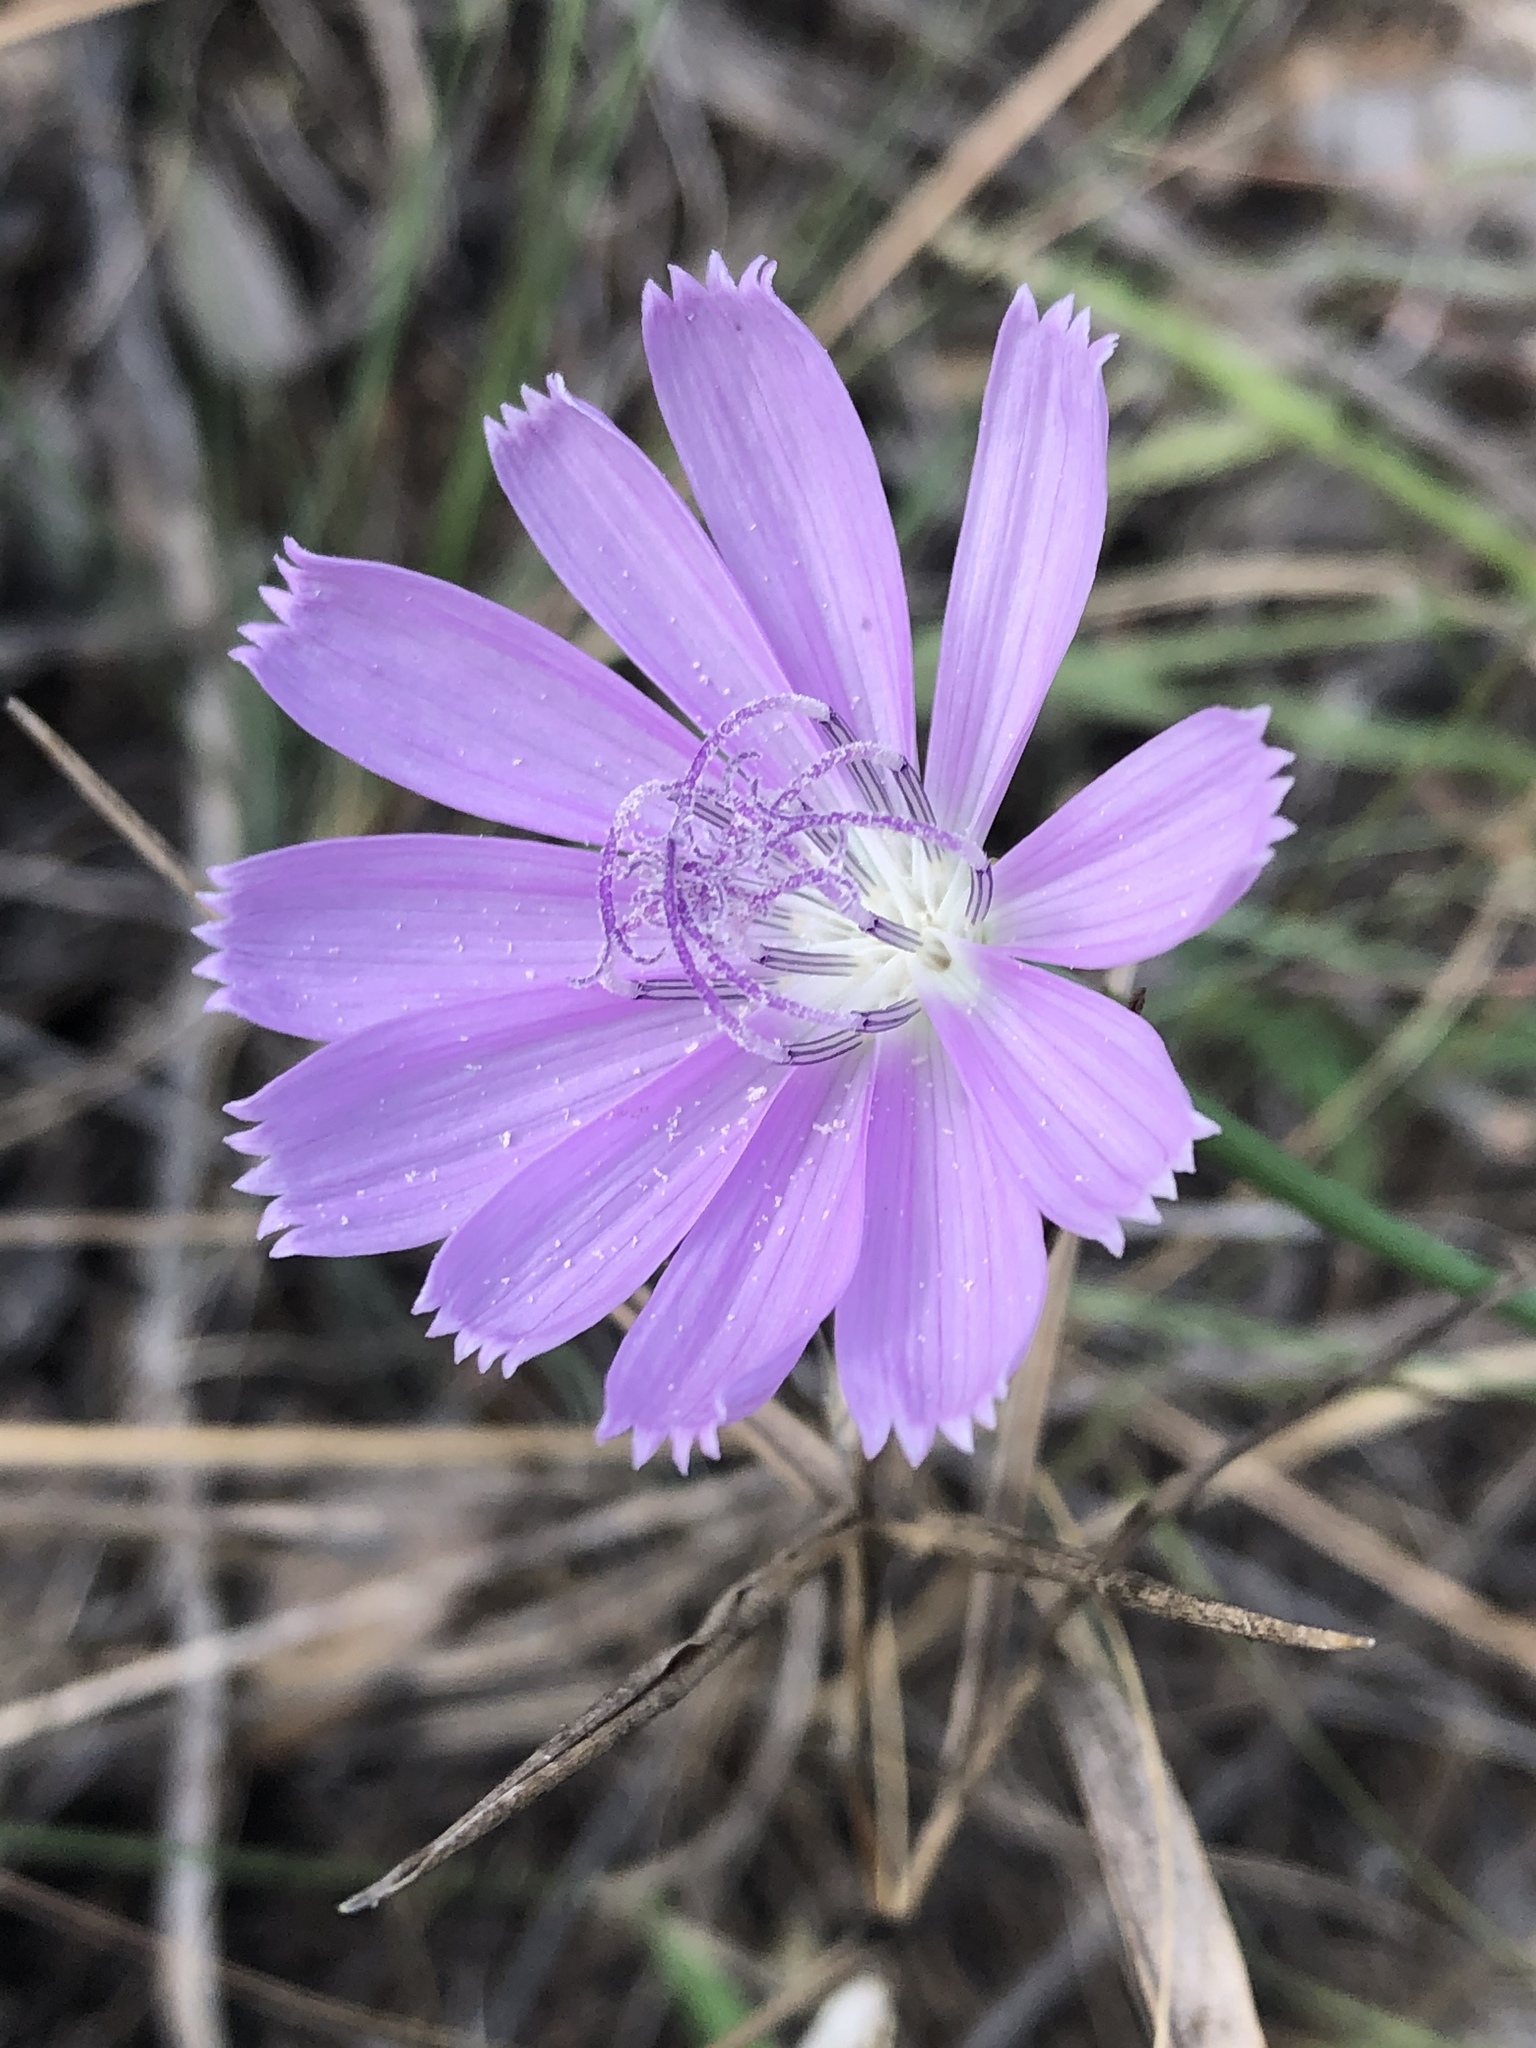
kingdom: Plantae
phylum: Tracheophyta
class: Magnoliopsida
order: Asterales
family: Asteraceae
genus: Lygodesmia
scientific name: Lygodesmia texana
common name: Texas skeleton-plant
